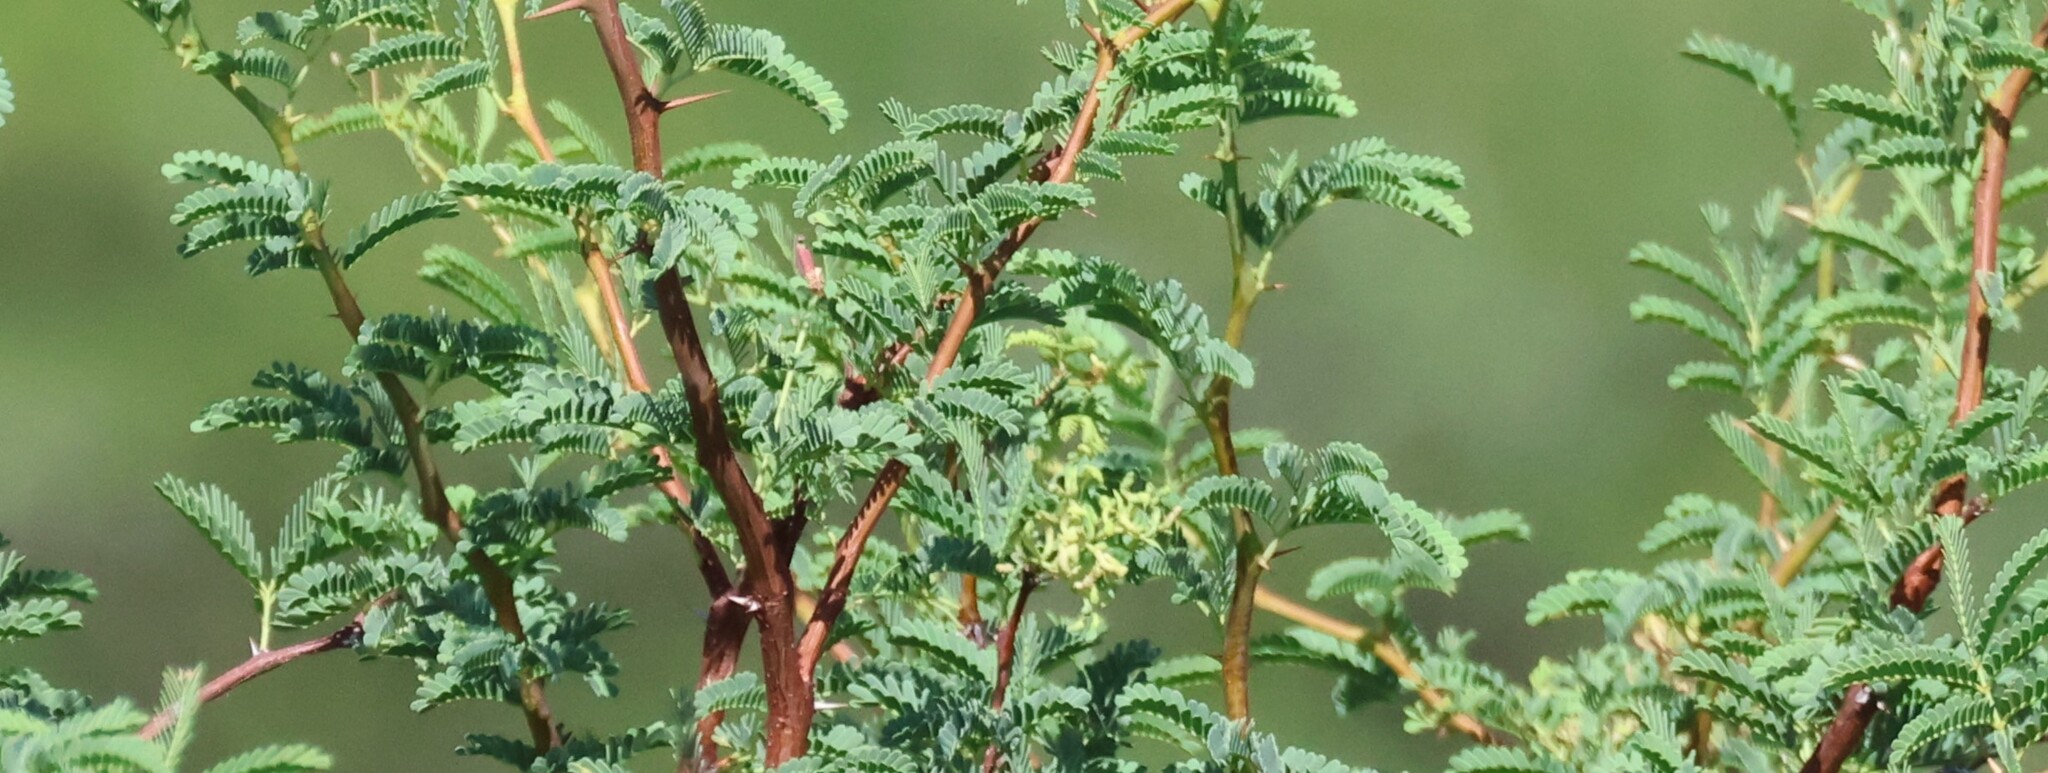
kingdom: Plantae
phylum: Tracheophyta
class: Magnoliopsida
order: Fabales
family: Fabaceae
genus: Vachellia
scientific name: Vachellia erioloba
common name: Camel thorn
